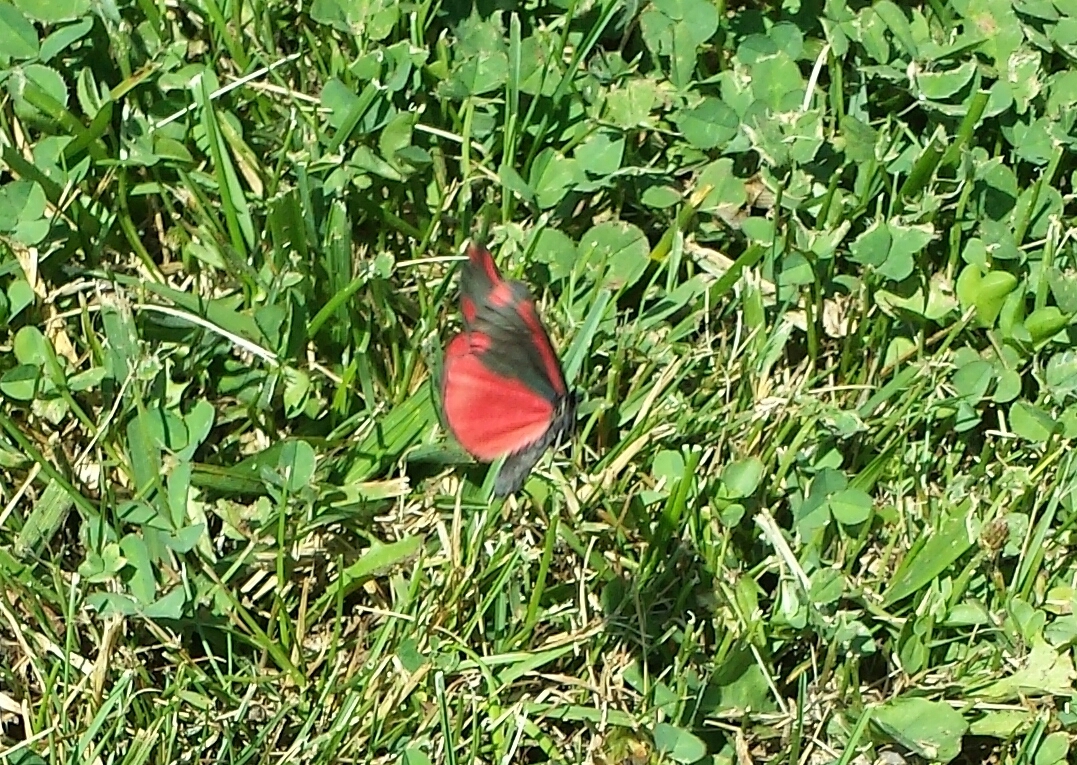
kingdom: Animalia
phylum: Arthropoda
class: Insecta
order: Lepidoptera
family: Erebidae
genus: Tyria
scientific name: Tyria jacobaeae
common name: Cinnabar
